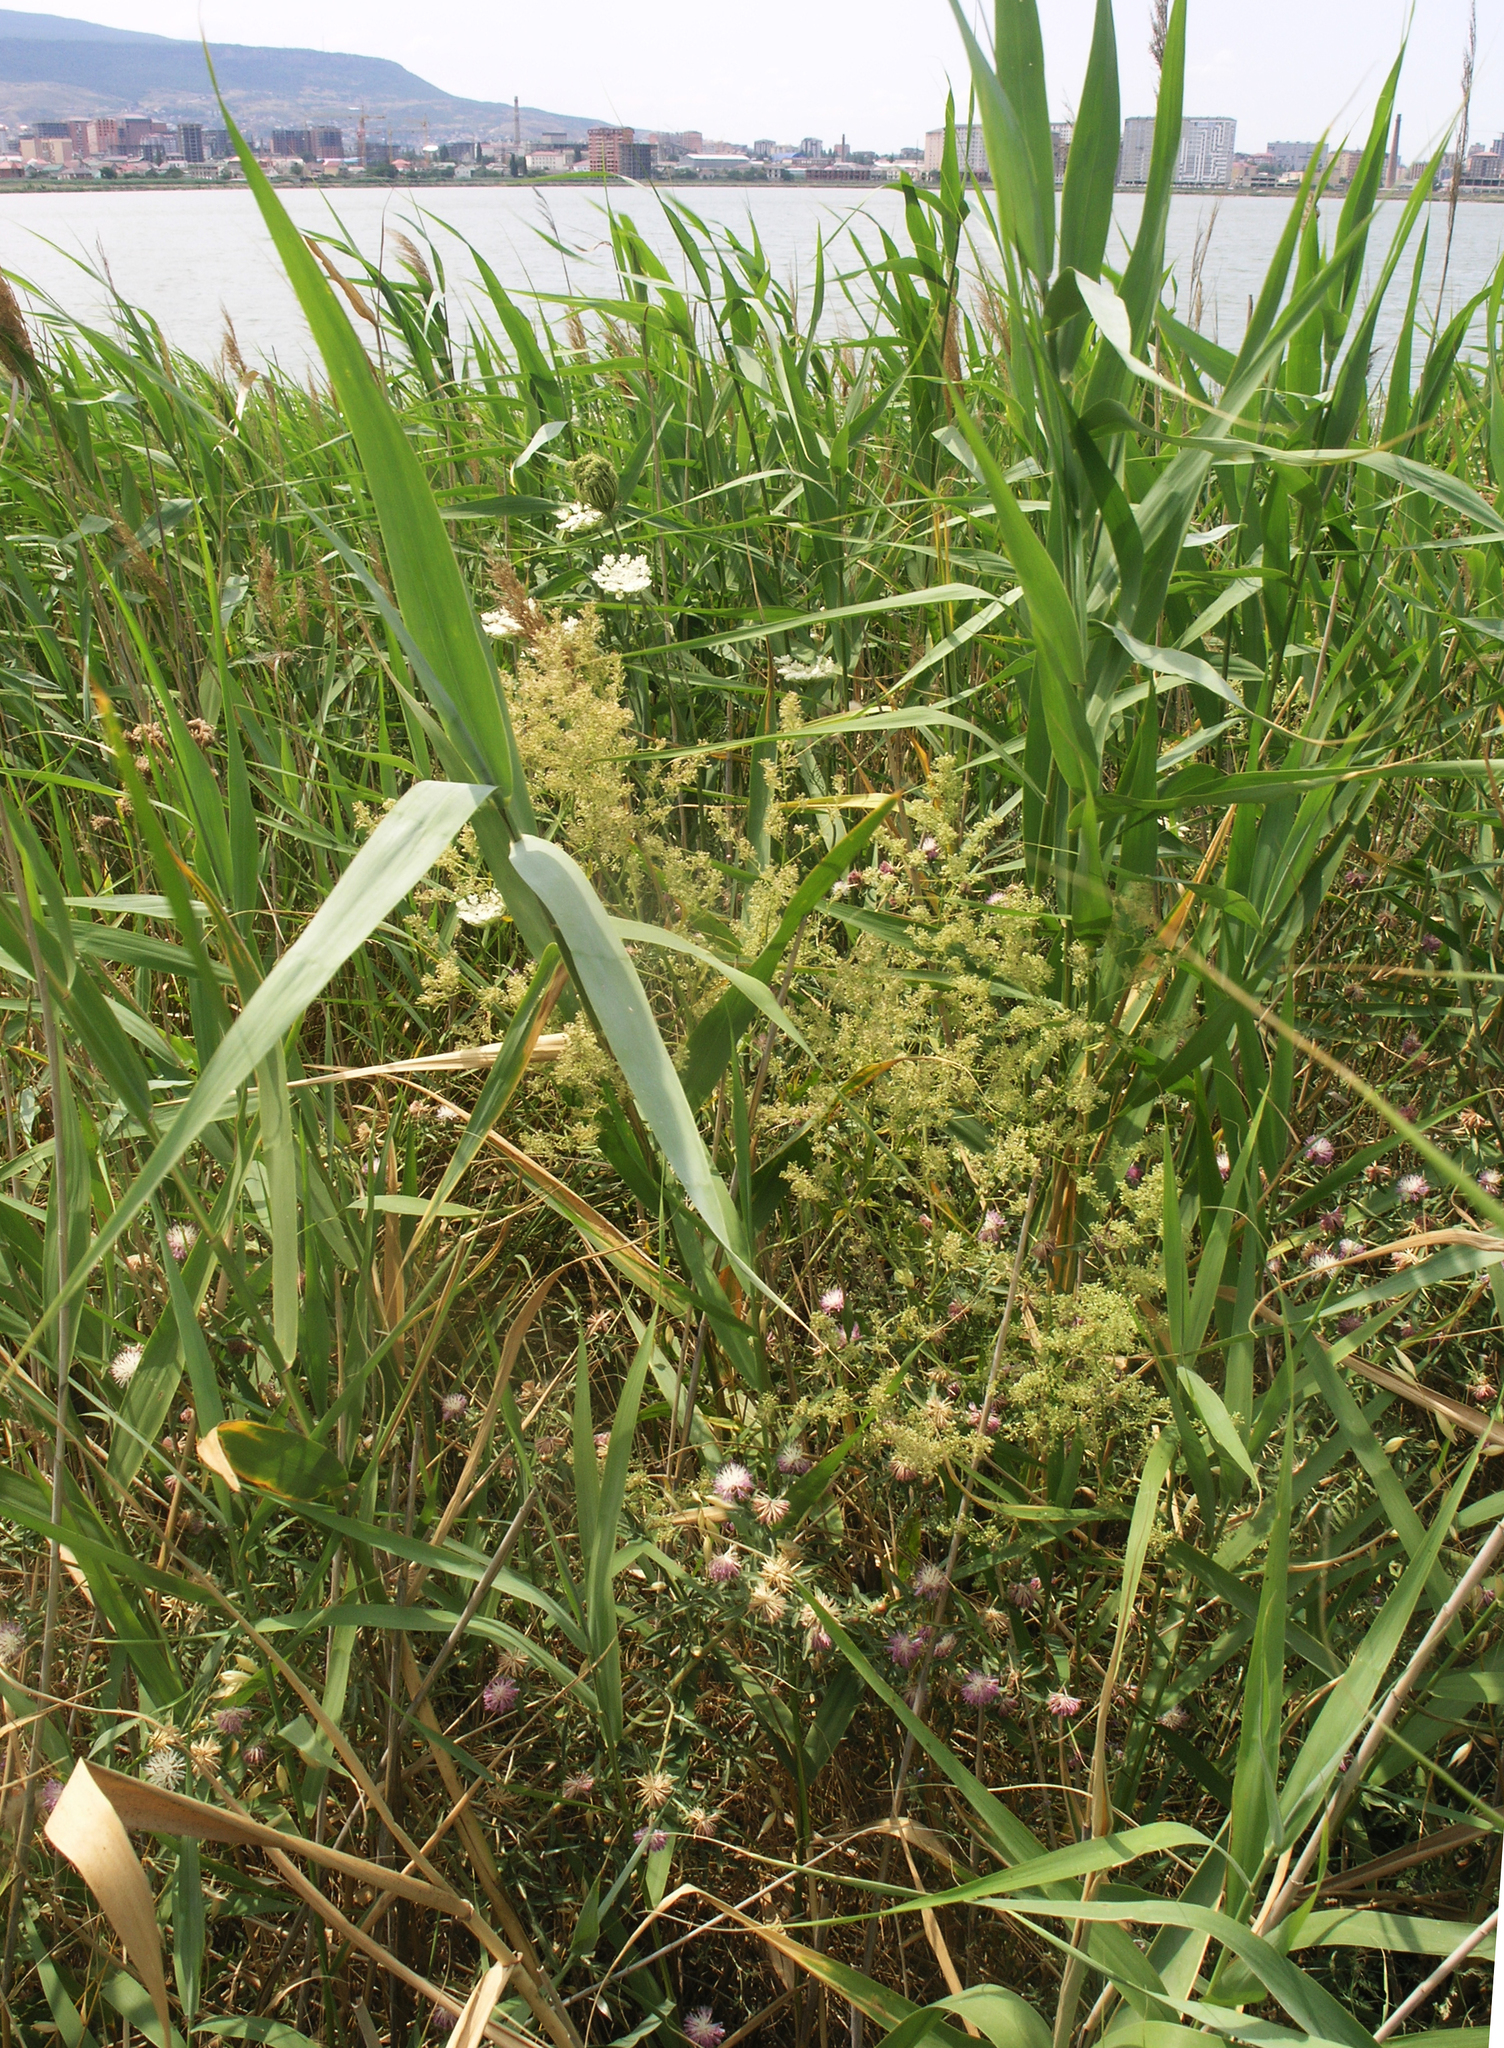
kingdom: Plantae
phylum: Tracheophyta
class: Magnoliopsida
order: Brassicales
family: Brassicaceae
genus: Lepidium
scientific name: Lepidium latifolium
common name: Dittander
